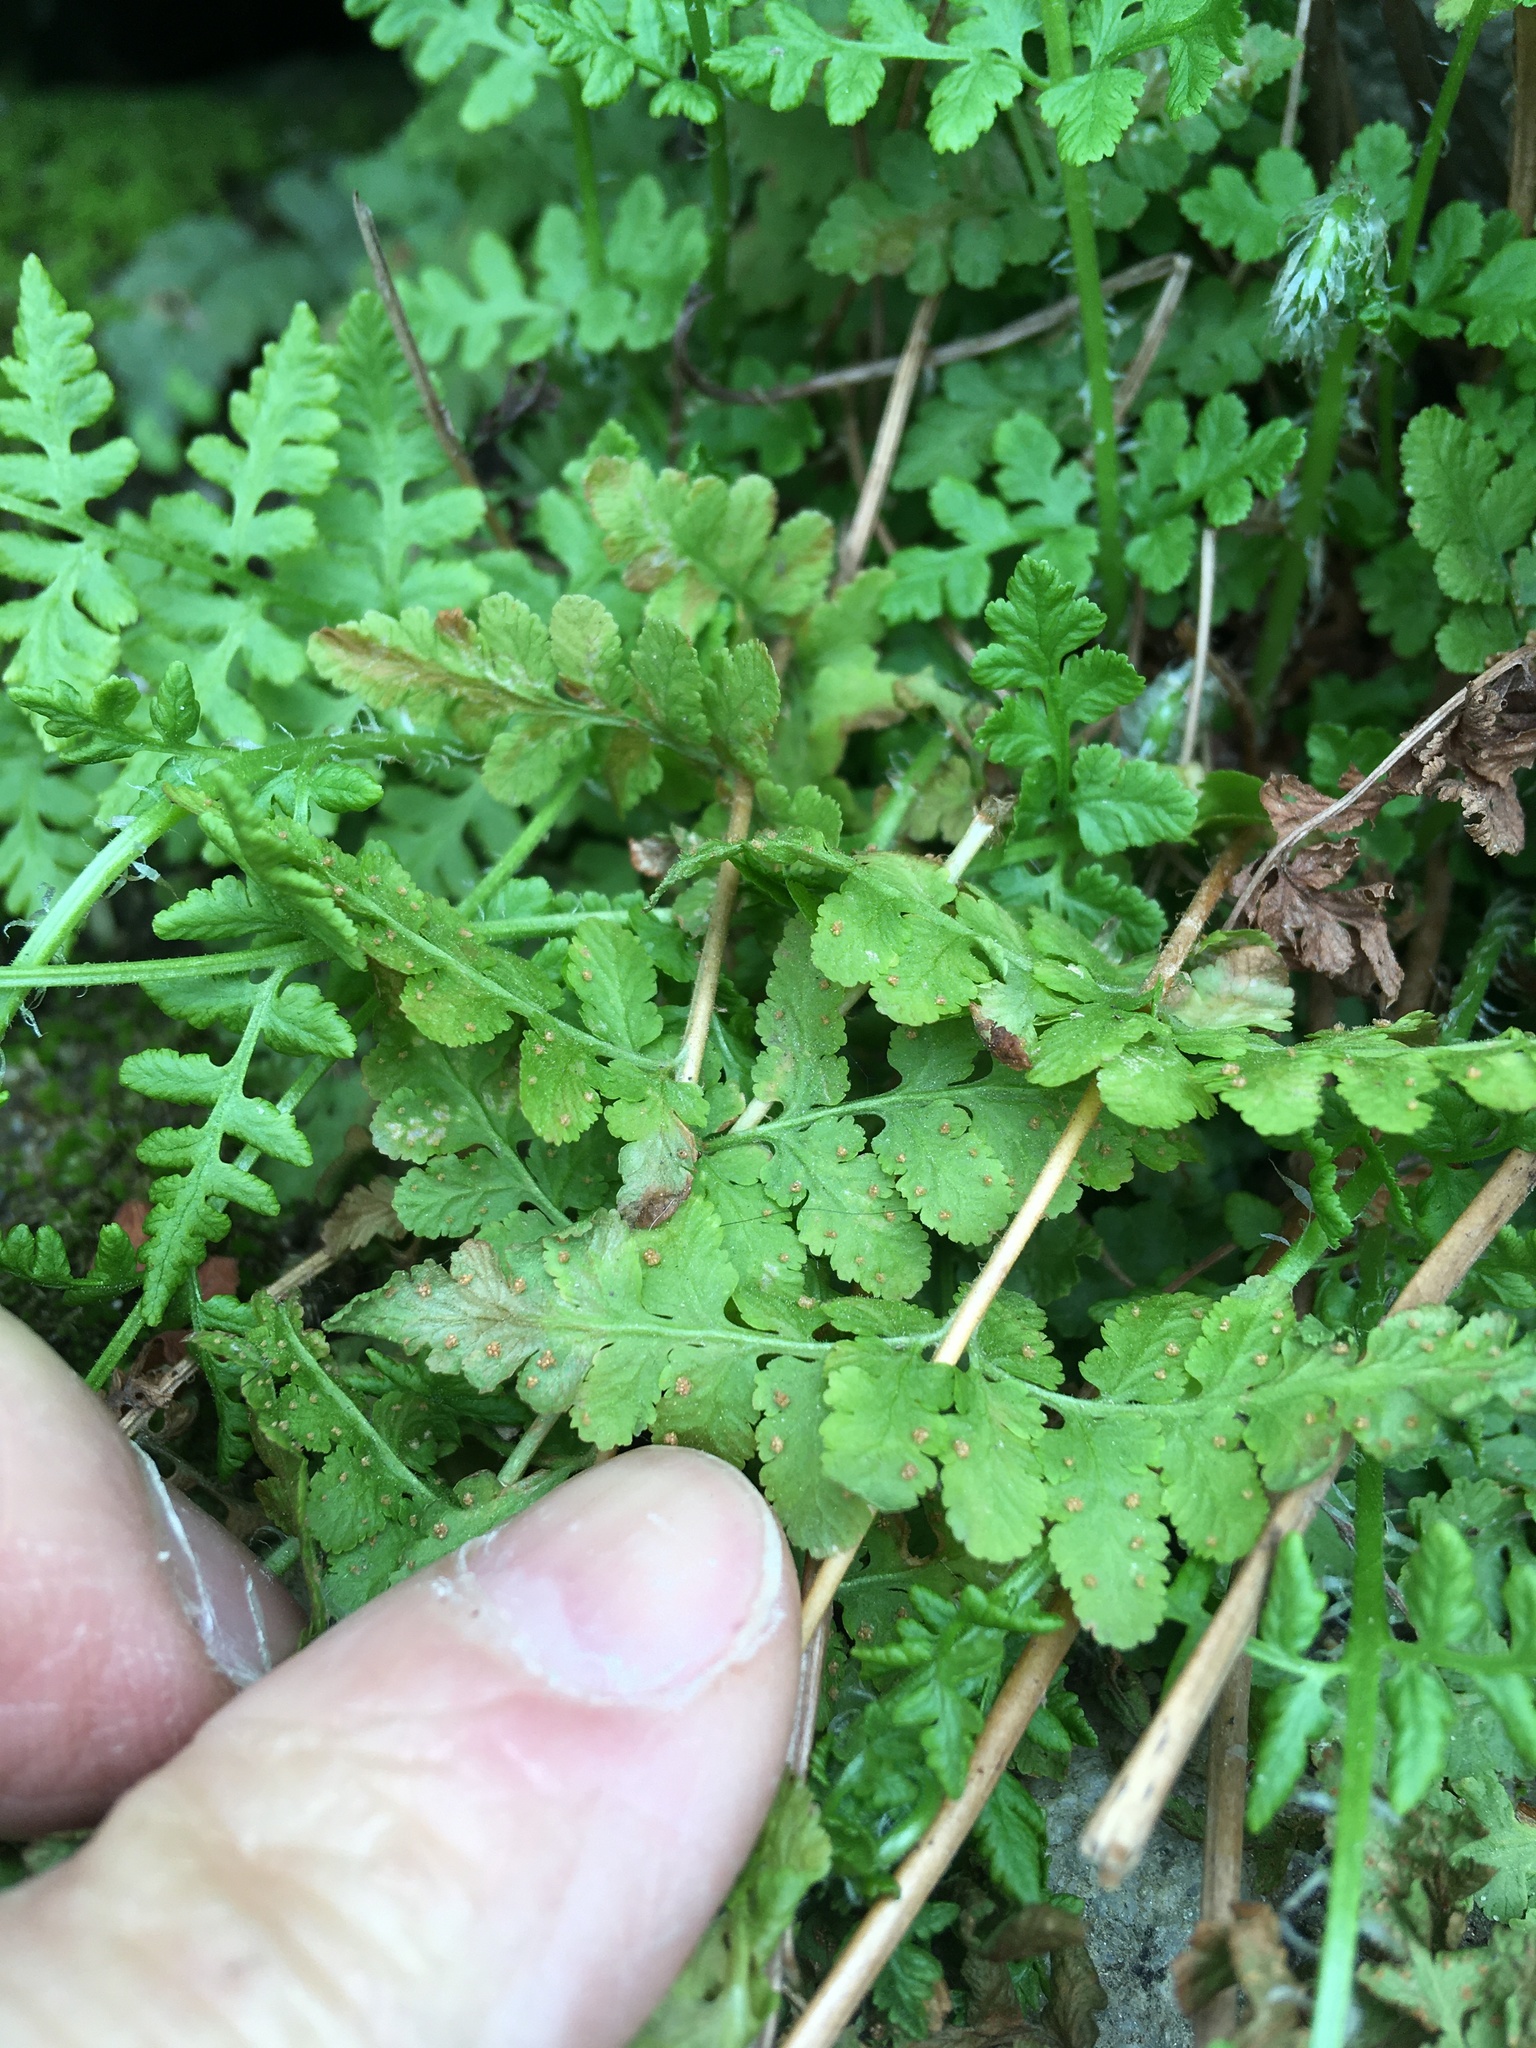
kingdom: Plantae
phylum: Tracheophyta
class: Polypodiopsida
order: Polypodiales
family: Woodsiaceae
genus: Physematium
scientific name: Physematium obtusum
